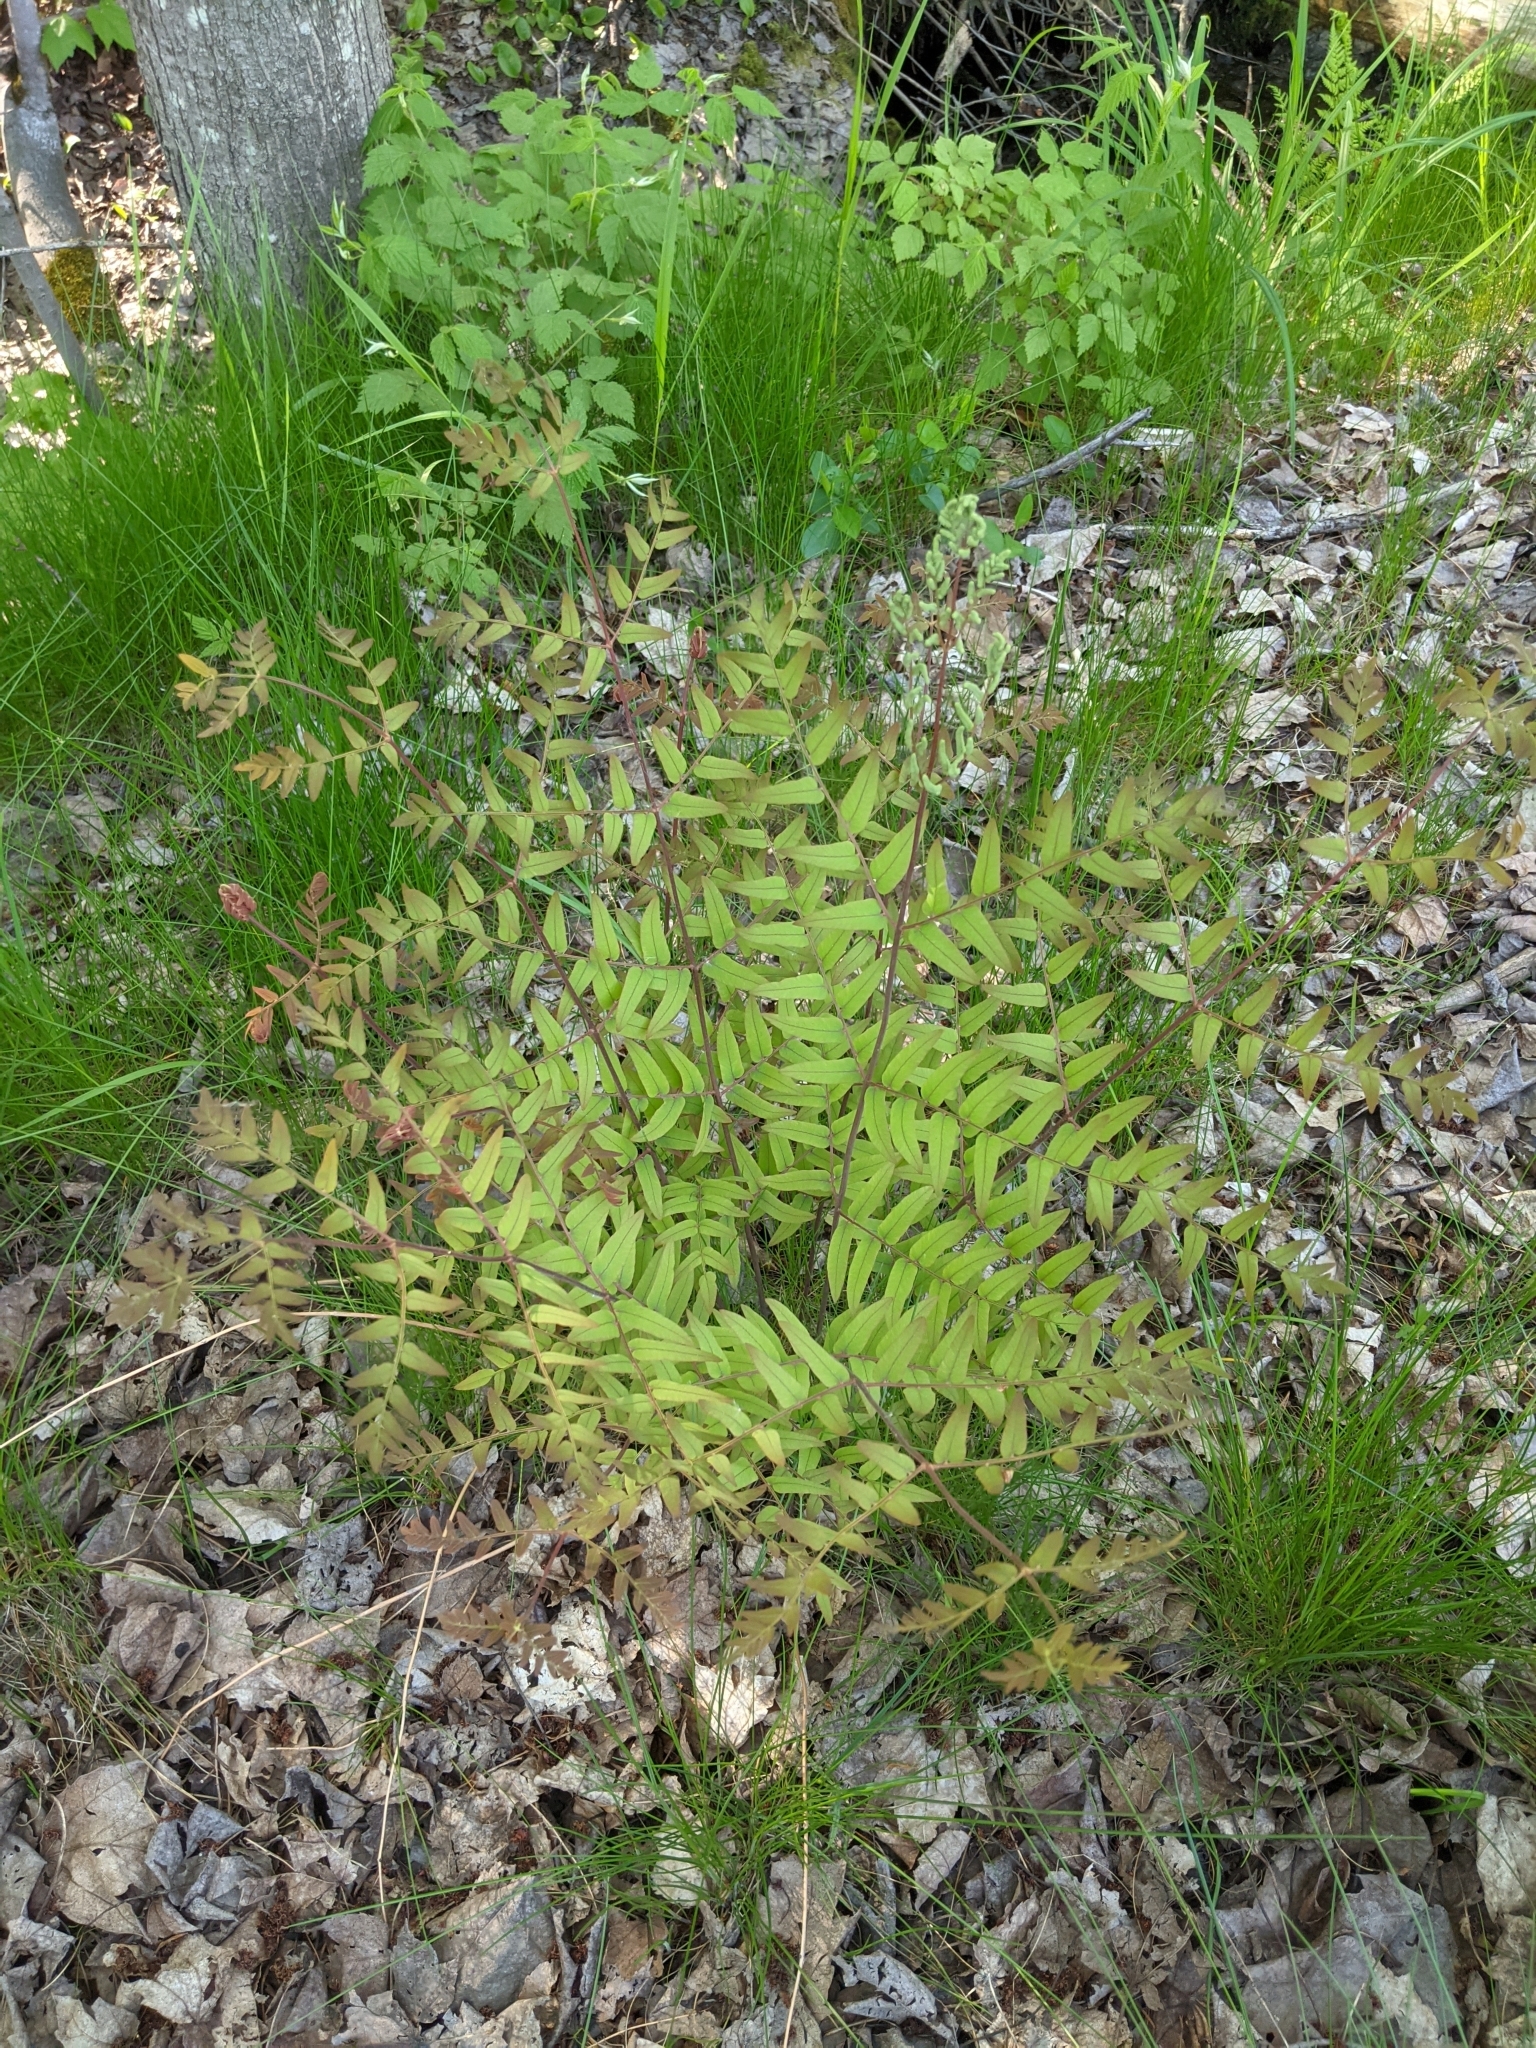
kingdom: Plantae
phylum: Tracheophyta
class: Polypodiopsida
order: Osmundales
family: Osmundaceae
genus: Osmunda
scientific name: Osmunda spectabilis
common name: American royal fern
